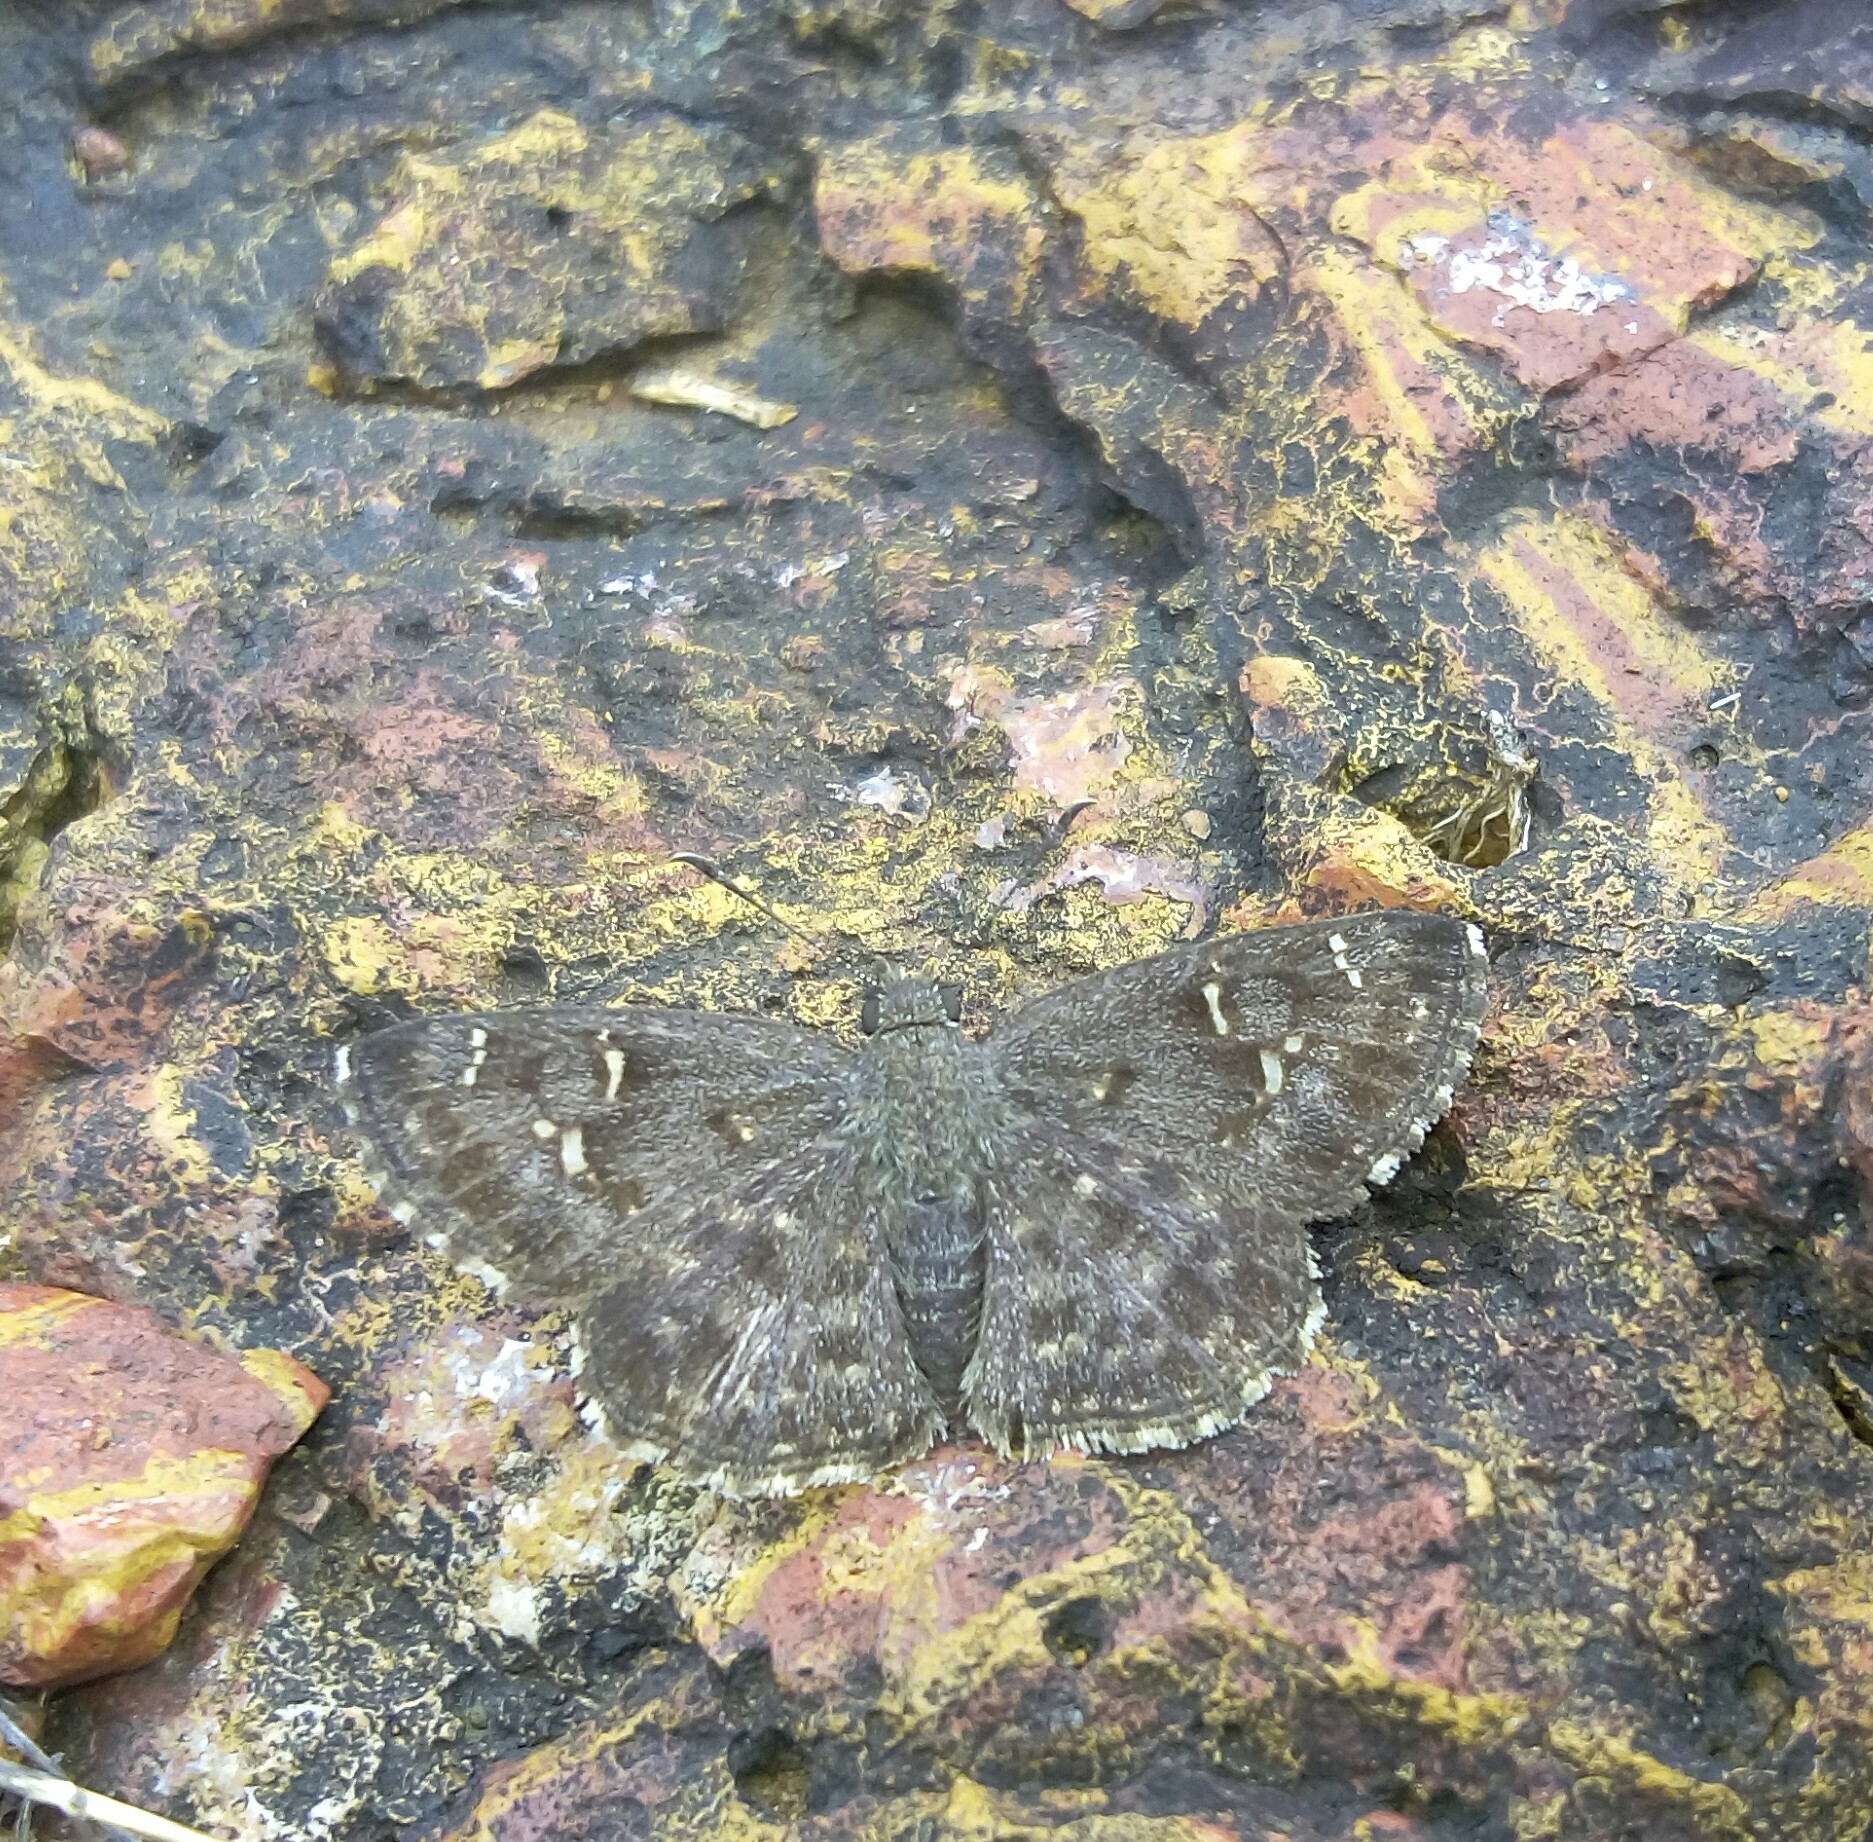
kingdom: Animalia
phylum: Arthropoda
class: Insecta
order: Lepidoptera
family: Hesperiidae
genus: Sarangesa
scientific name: Sarangesa purendra
